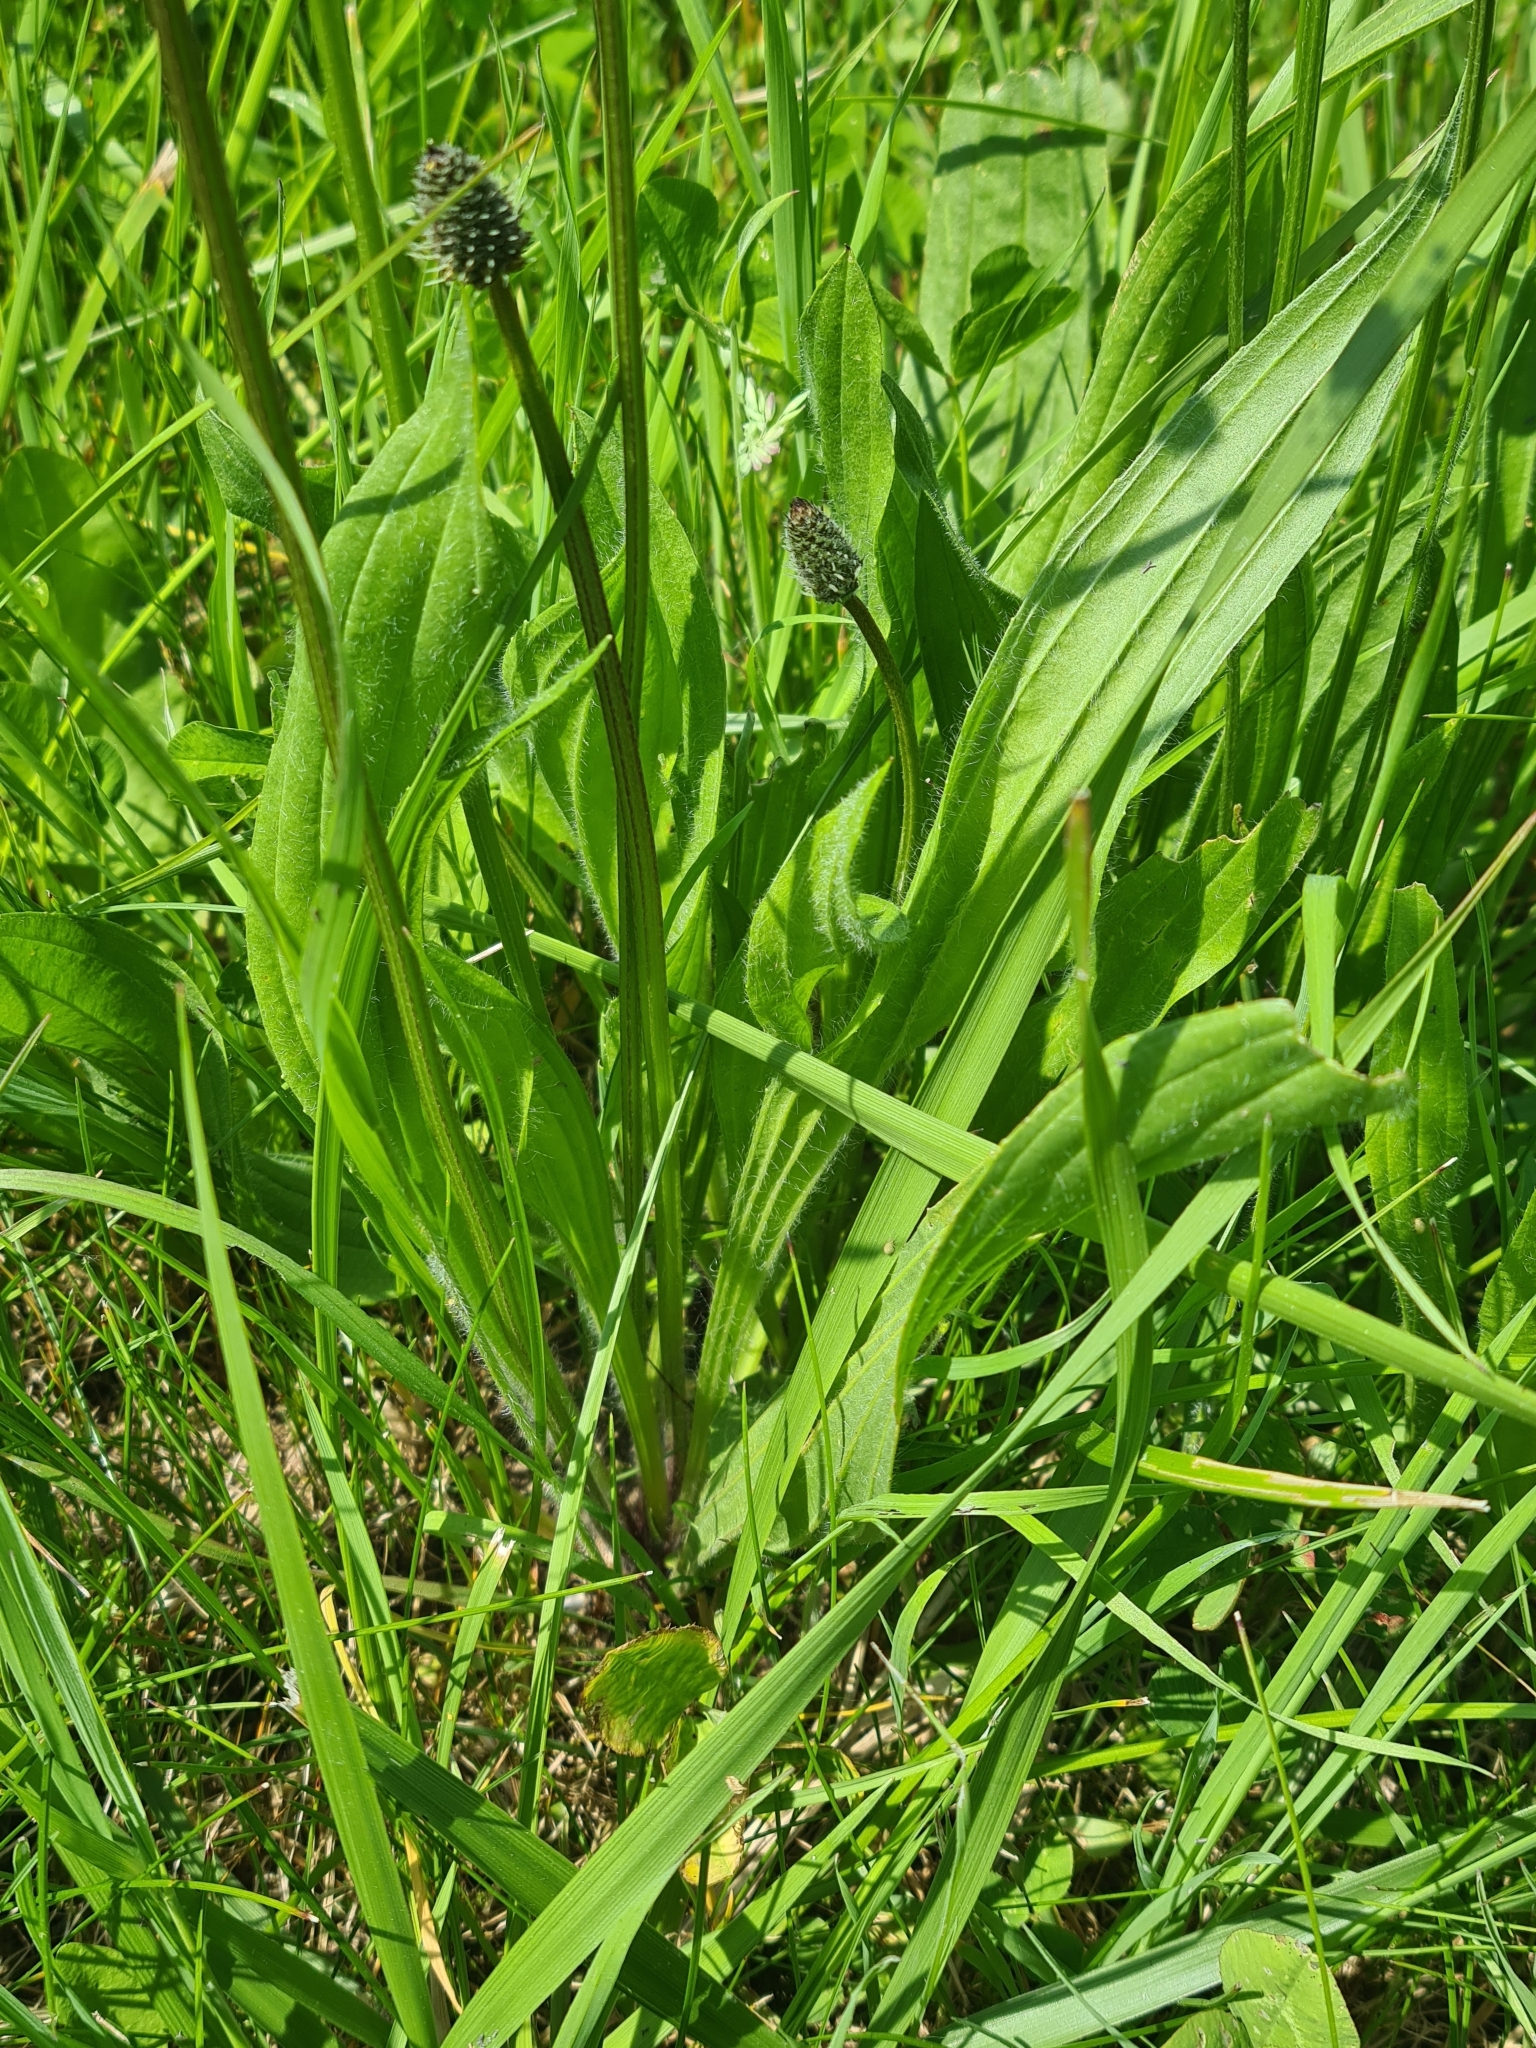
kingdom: Plantae
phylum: Tracheophyta
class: Magnoliopsida
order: Lamiales
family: Plantaginaceae
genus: Plantago
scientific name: Plantago lanceolata
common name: Ribwort plantain
